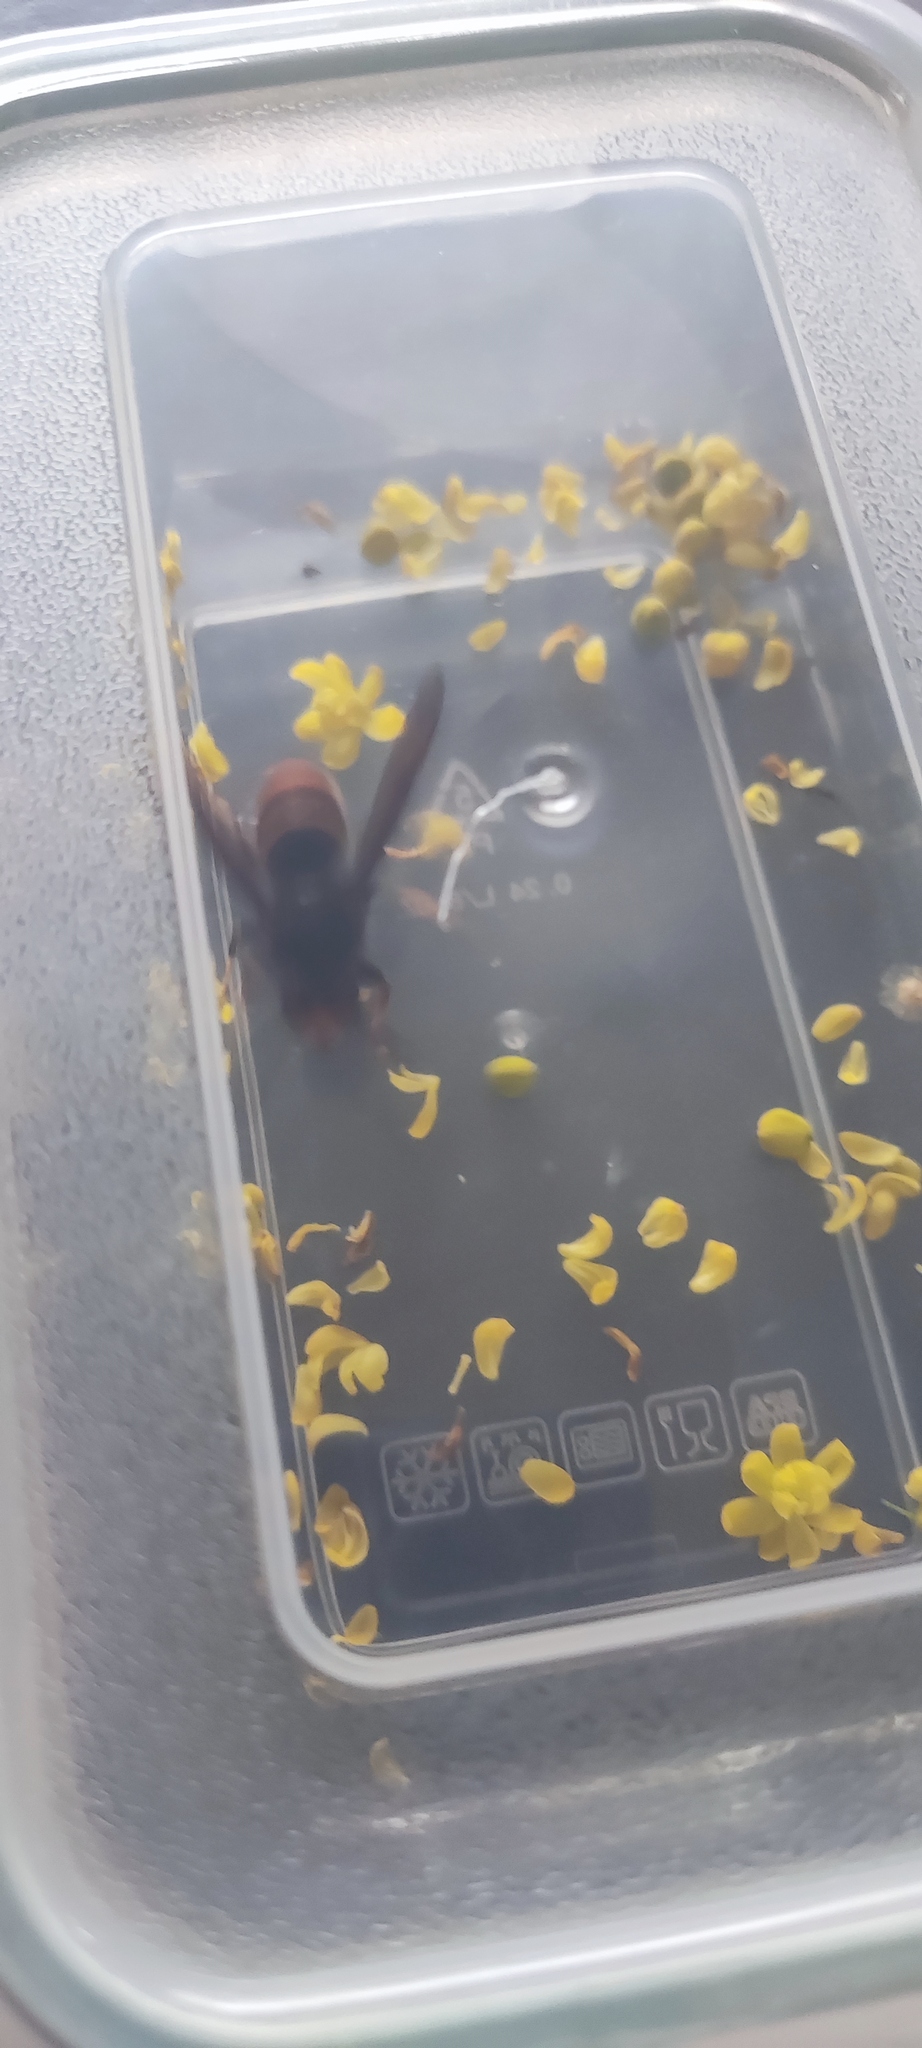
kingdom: Animalia
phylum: Arthropoda
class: Insecta
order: Hymenoptera
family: Vespidae
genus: Vespa
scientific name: Vespa velutina
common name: Asian hornet
